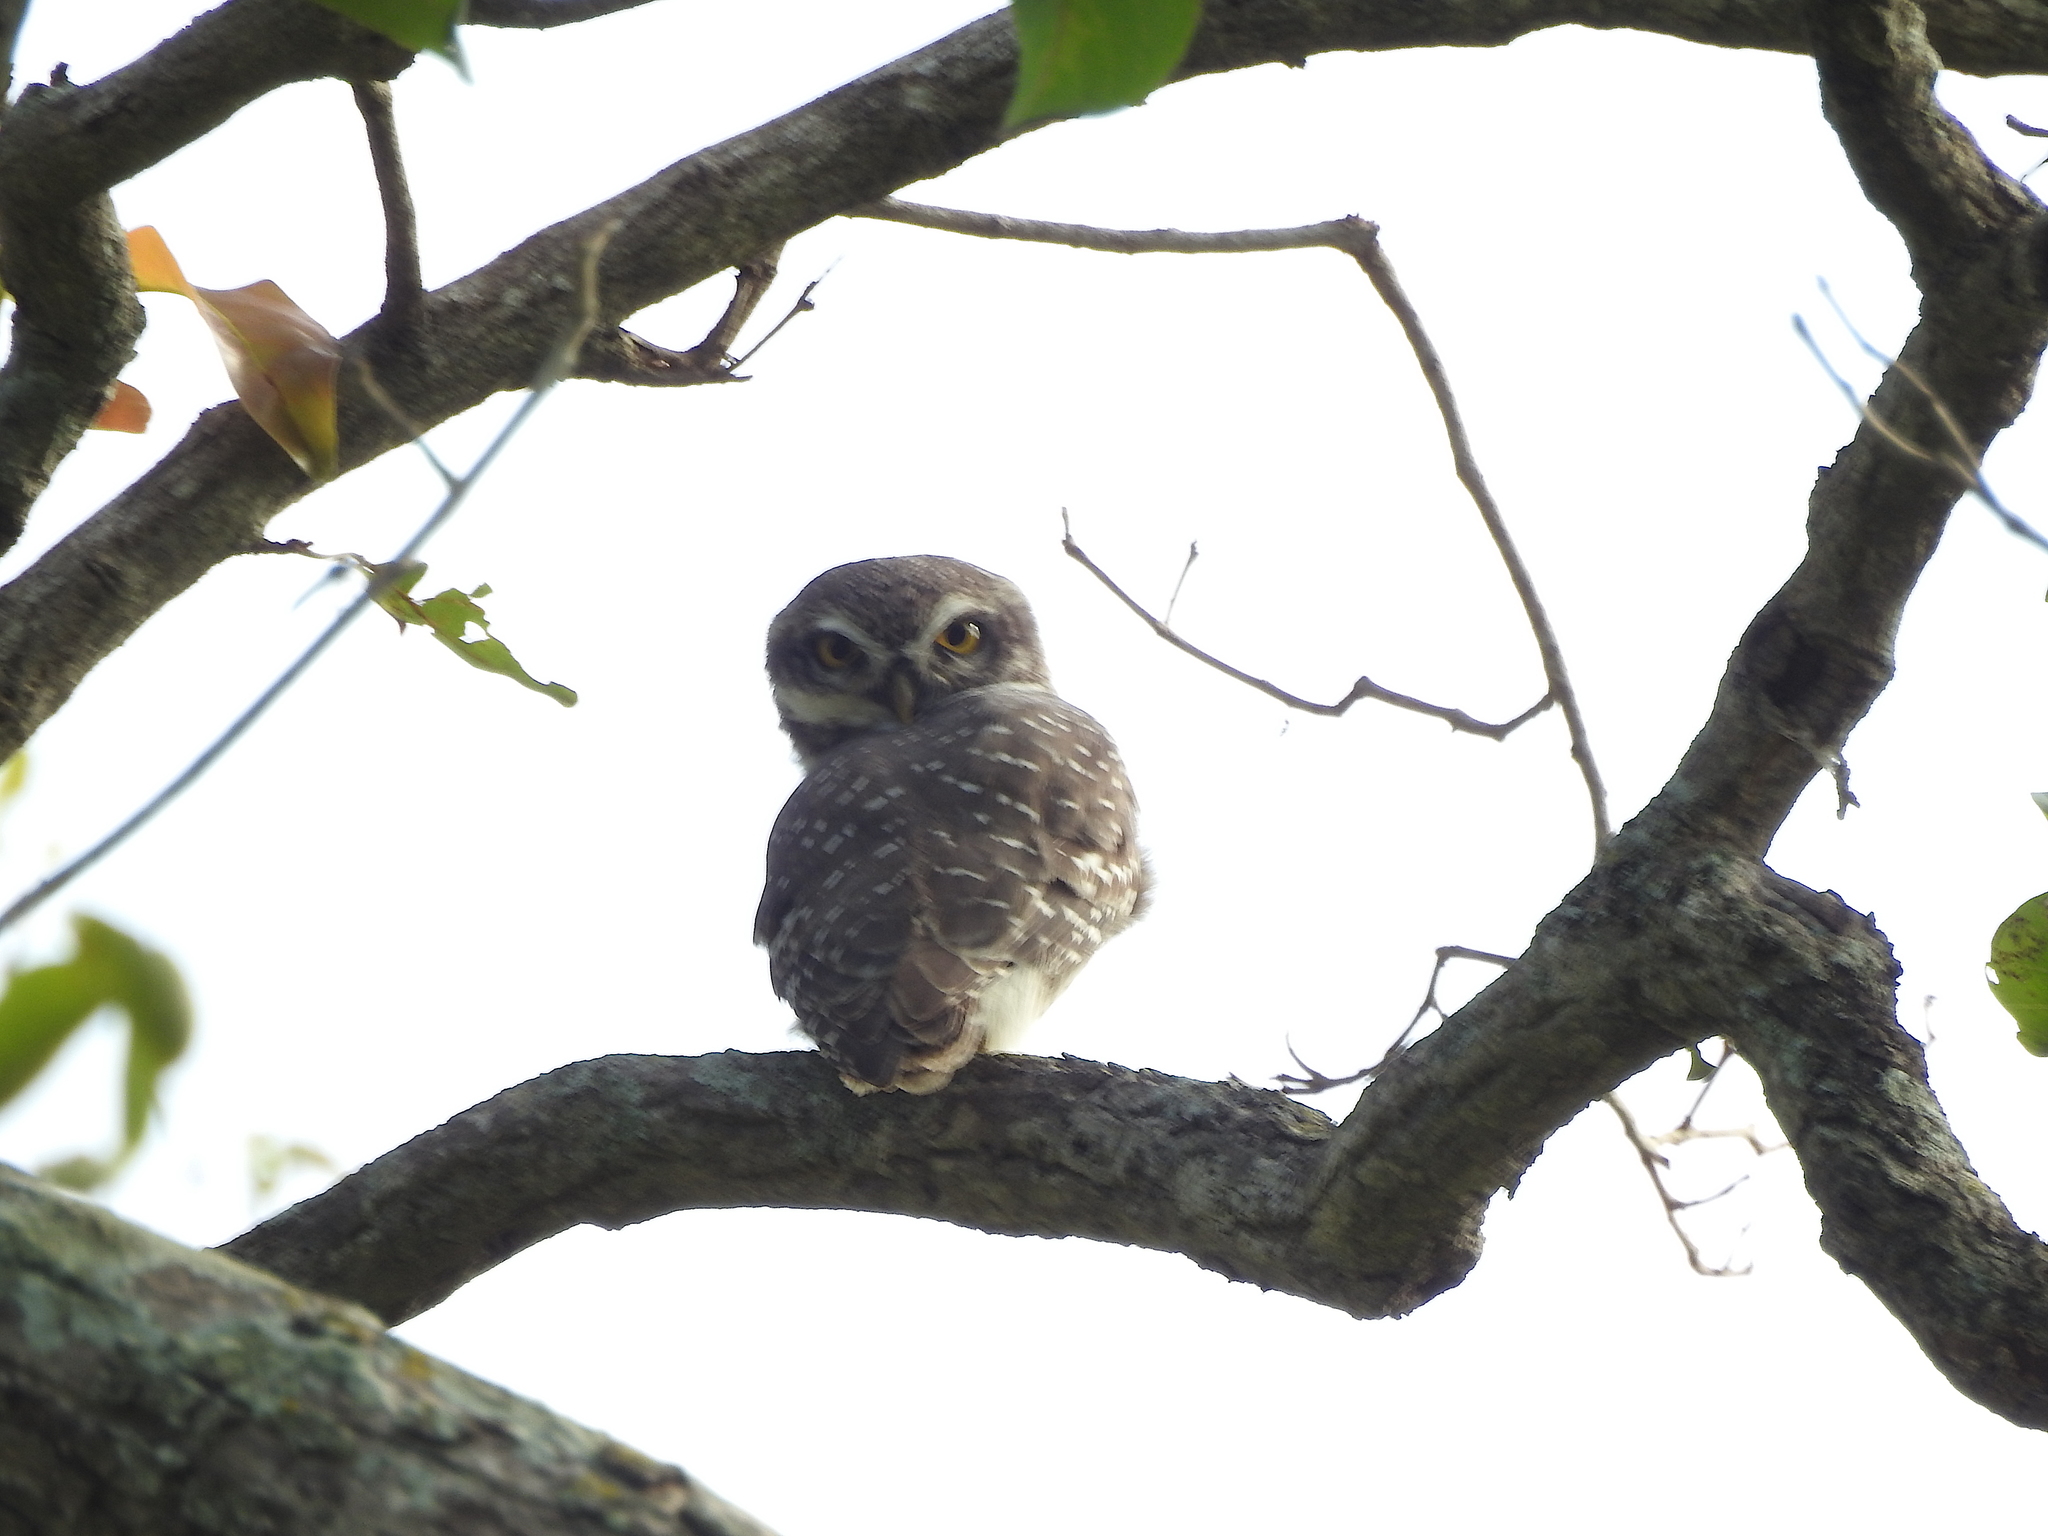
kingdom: Animalia
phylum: Chordata
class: Aves
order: Strigiformes
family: Strigidae
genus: Athene
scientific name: Athene brama
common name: Spotted owlet
